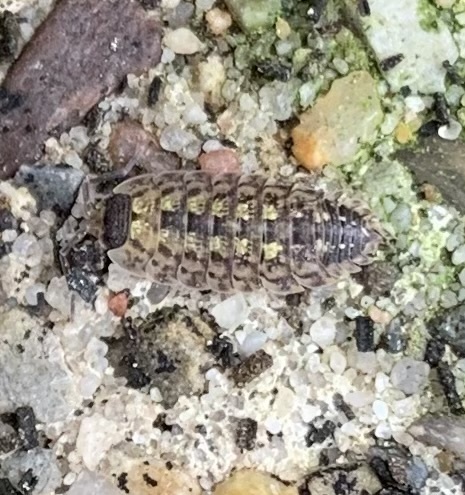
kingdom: Animalia
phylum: Arthropoda
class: Malacostraca
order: Isopoda
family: Porcellionidae
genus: Porcellio
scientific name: Porcellio spinicornis
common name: Painted woodlouse
